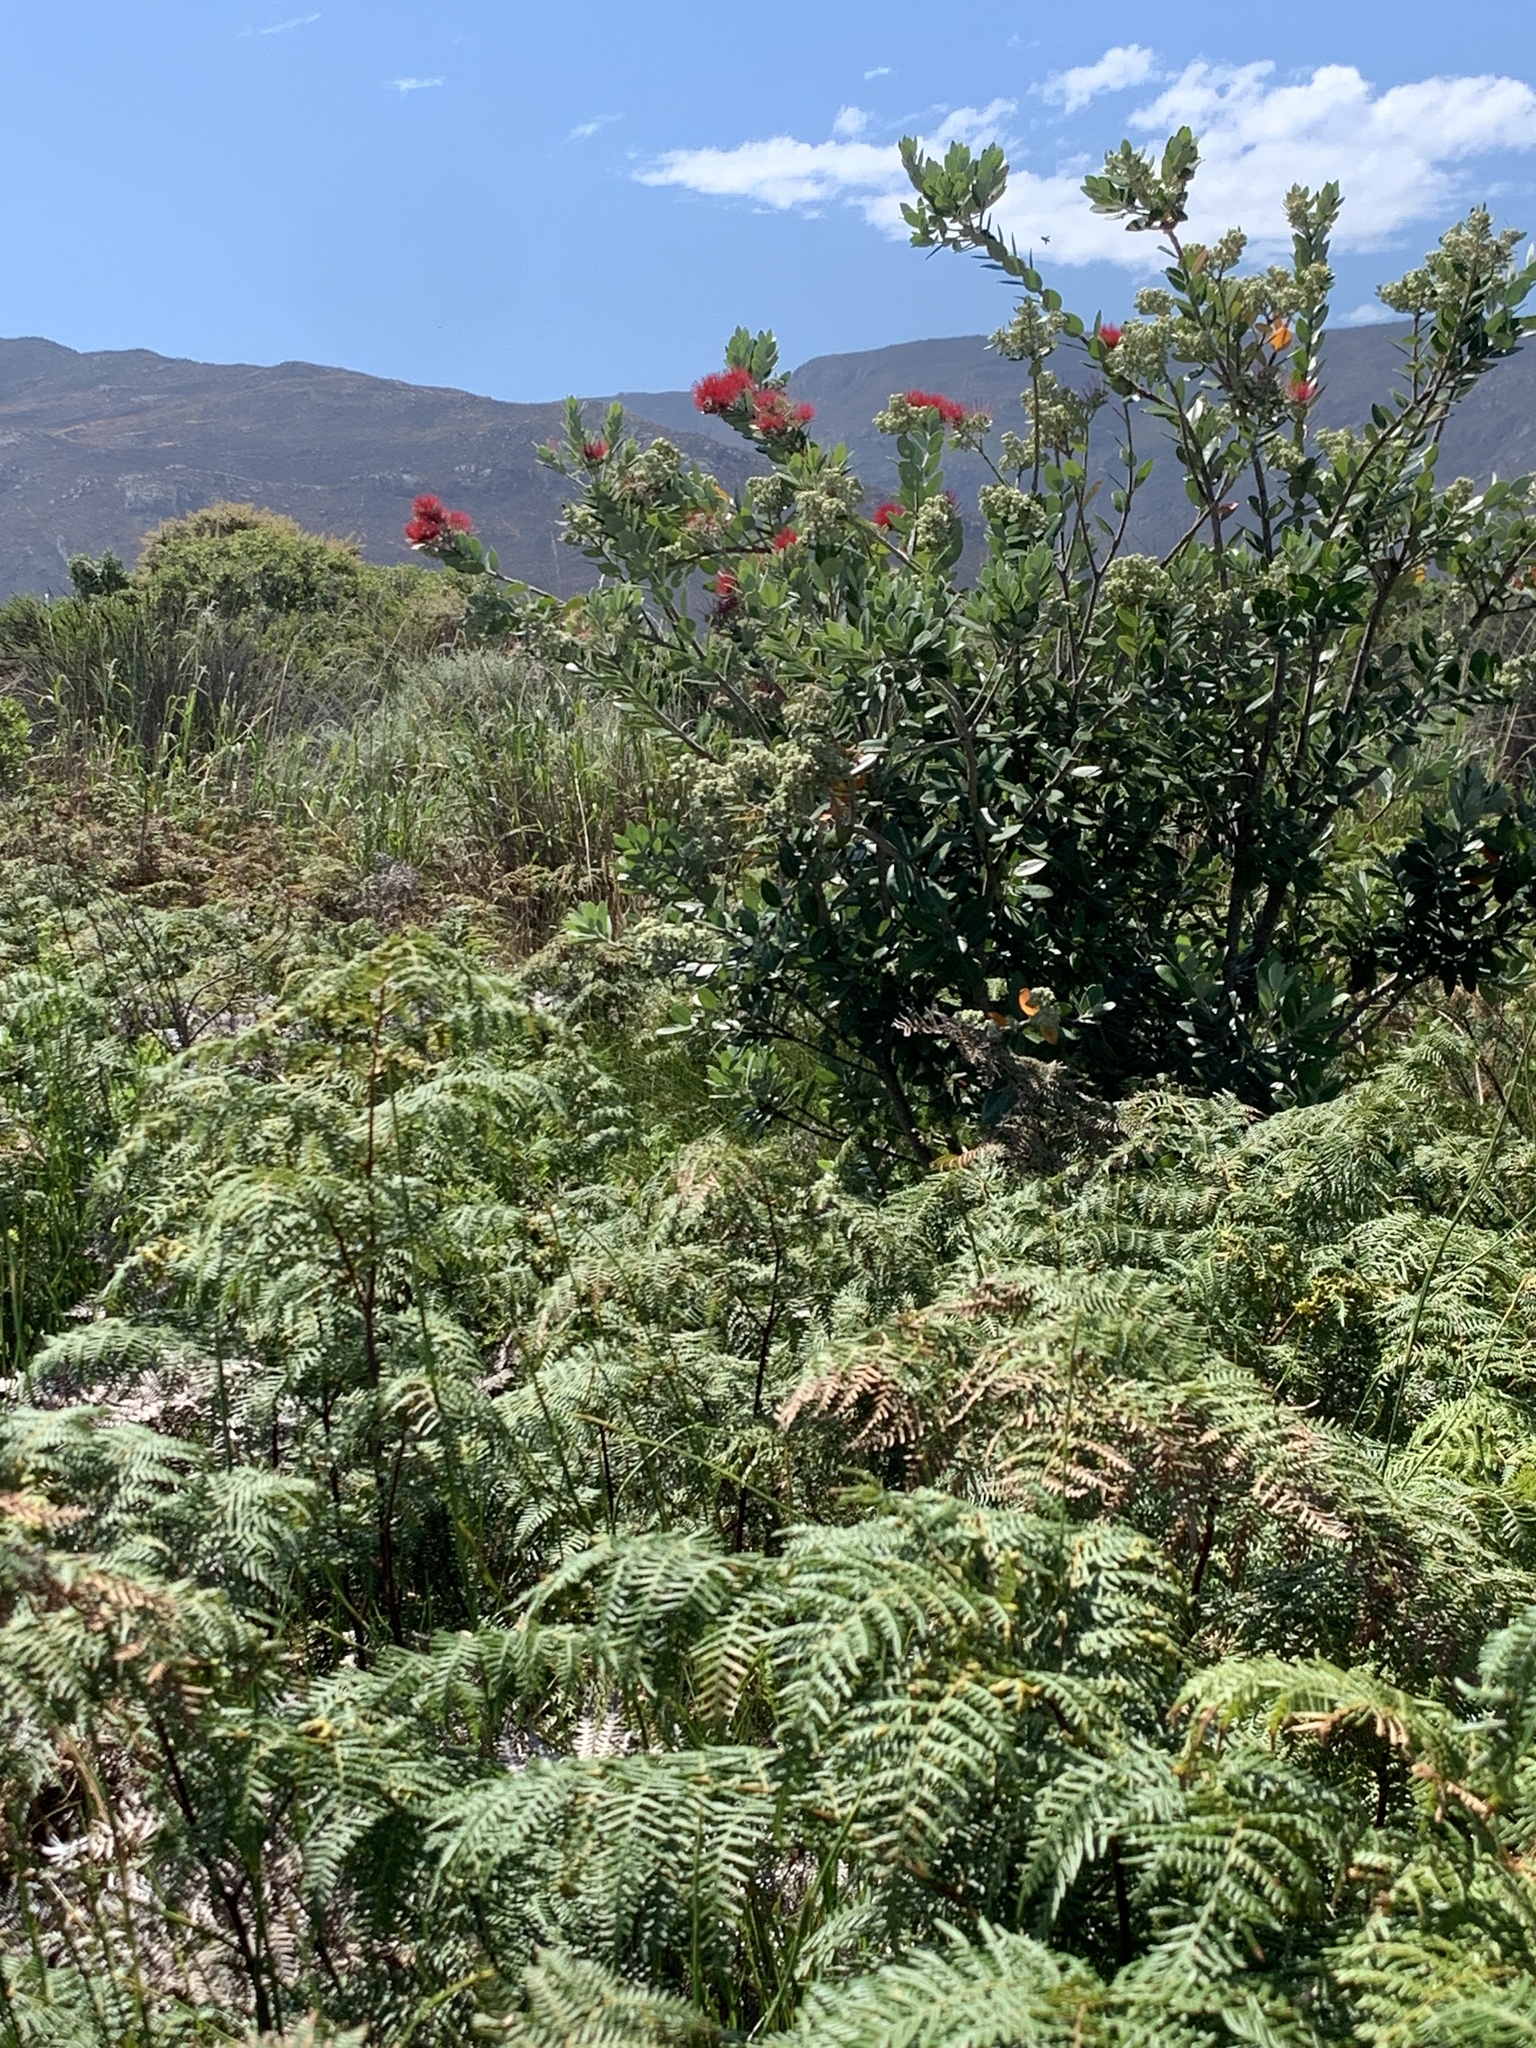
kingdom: Plantae
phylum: Tracheophyta
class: Magnoliopsida
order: Myrtales
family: Myrtaceae
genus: Metrosideros
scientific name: Metrosideros excelsa
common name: New zealand christmastree
